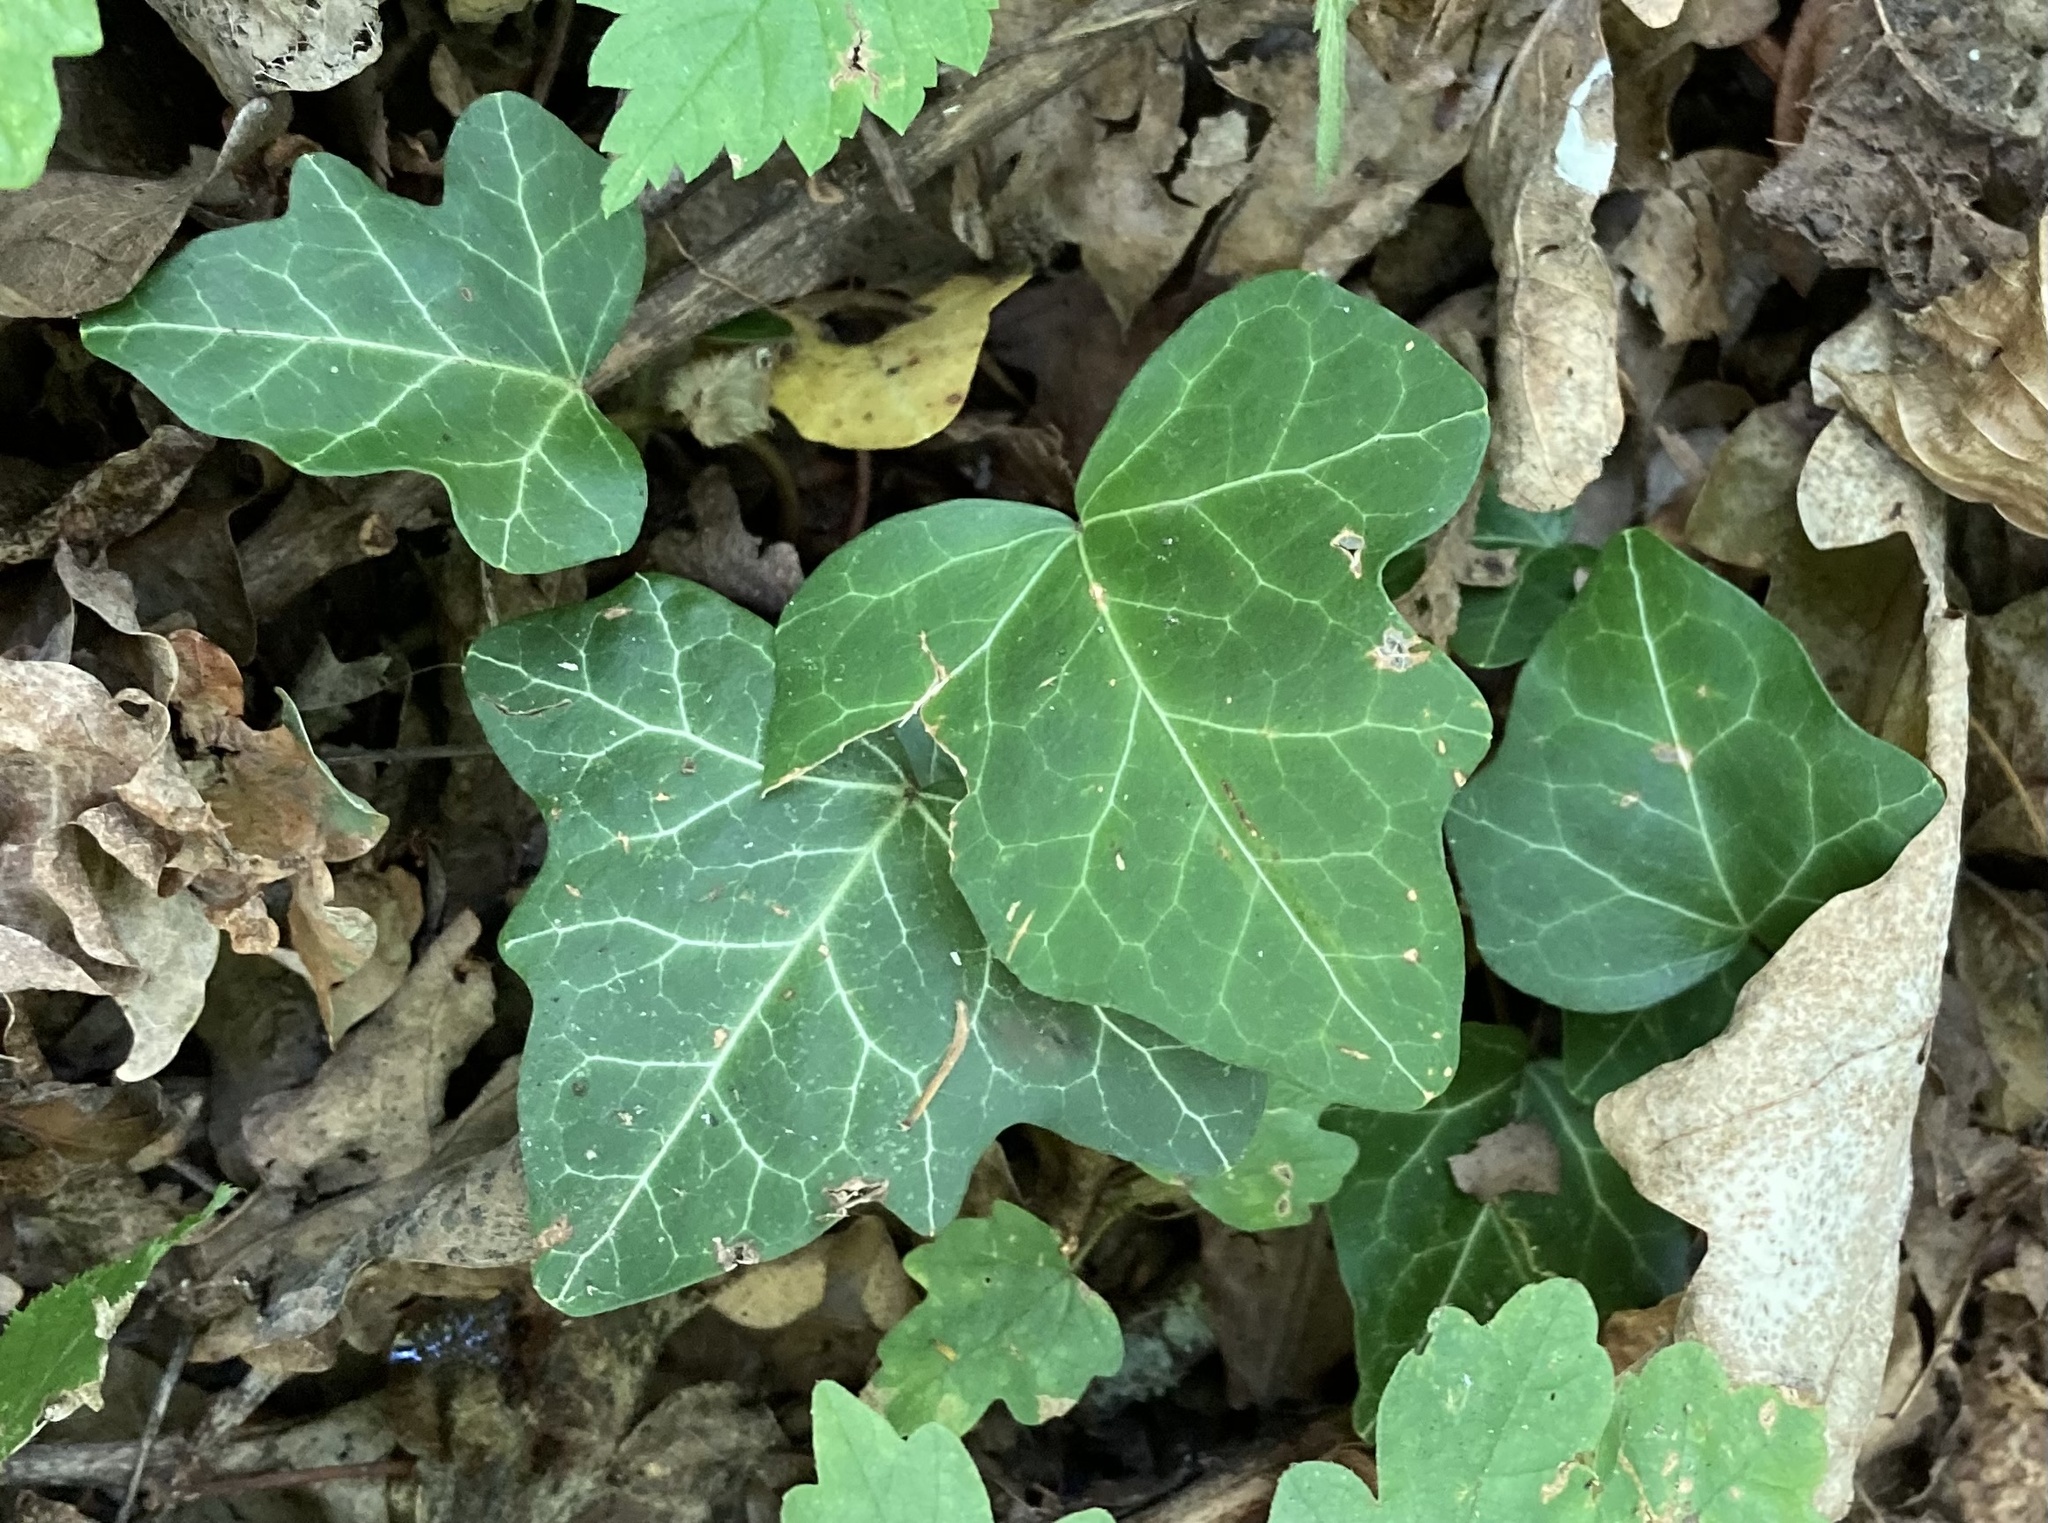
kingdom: Plantae
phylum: Tracheophyta
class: Magnoliopsida
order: Apiales
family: Araliaceae
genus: Hedera
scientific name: Hedera helix
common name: Ivy
